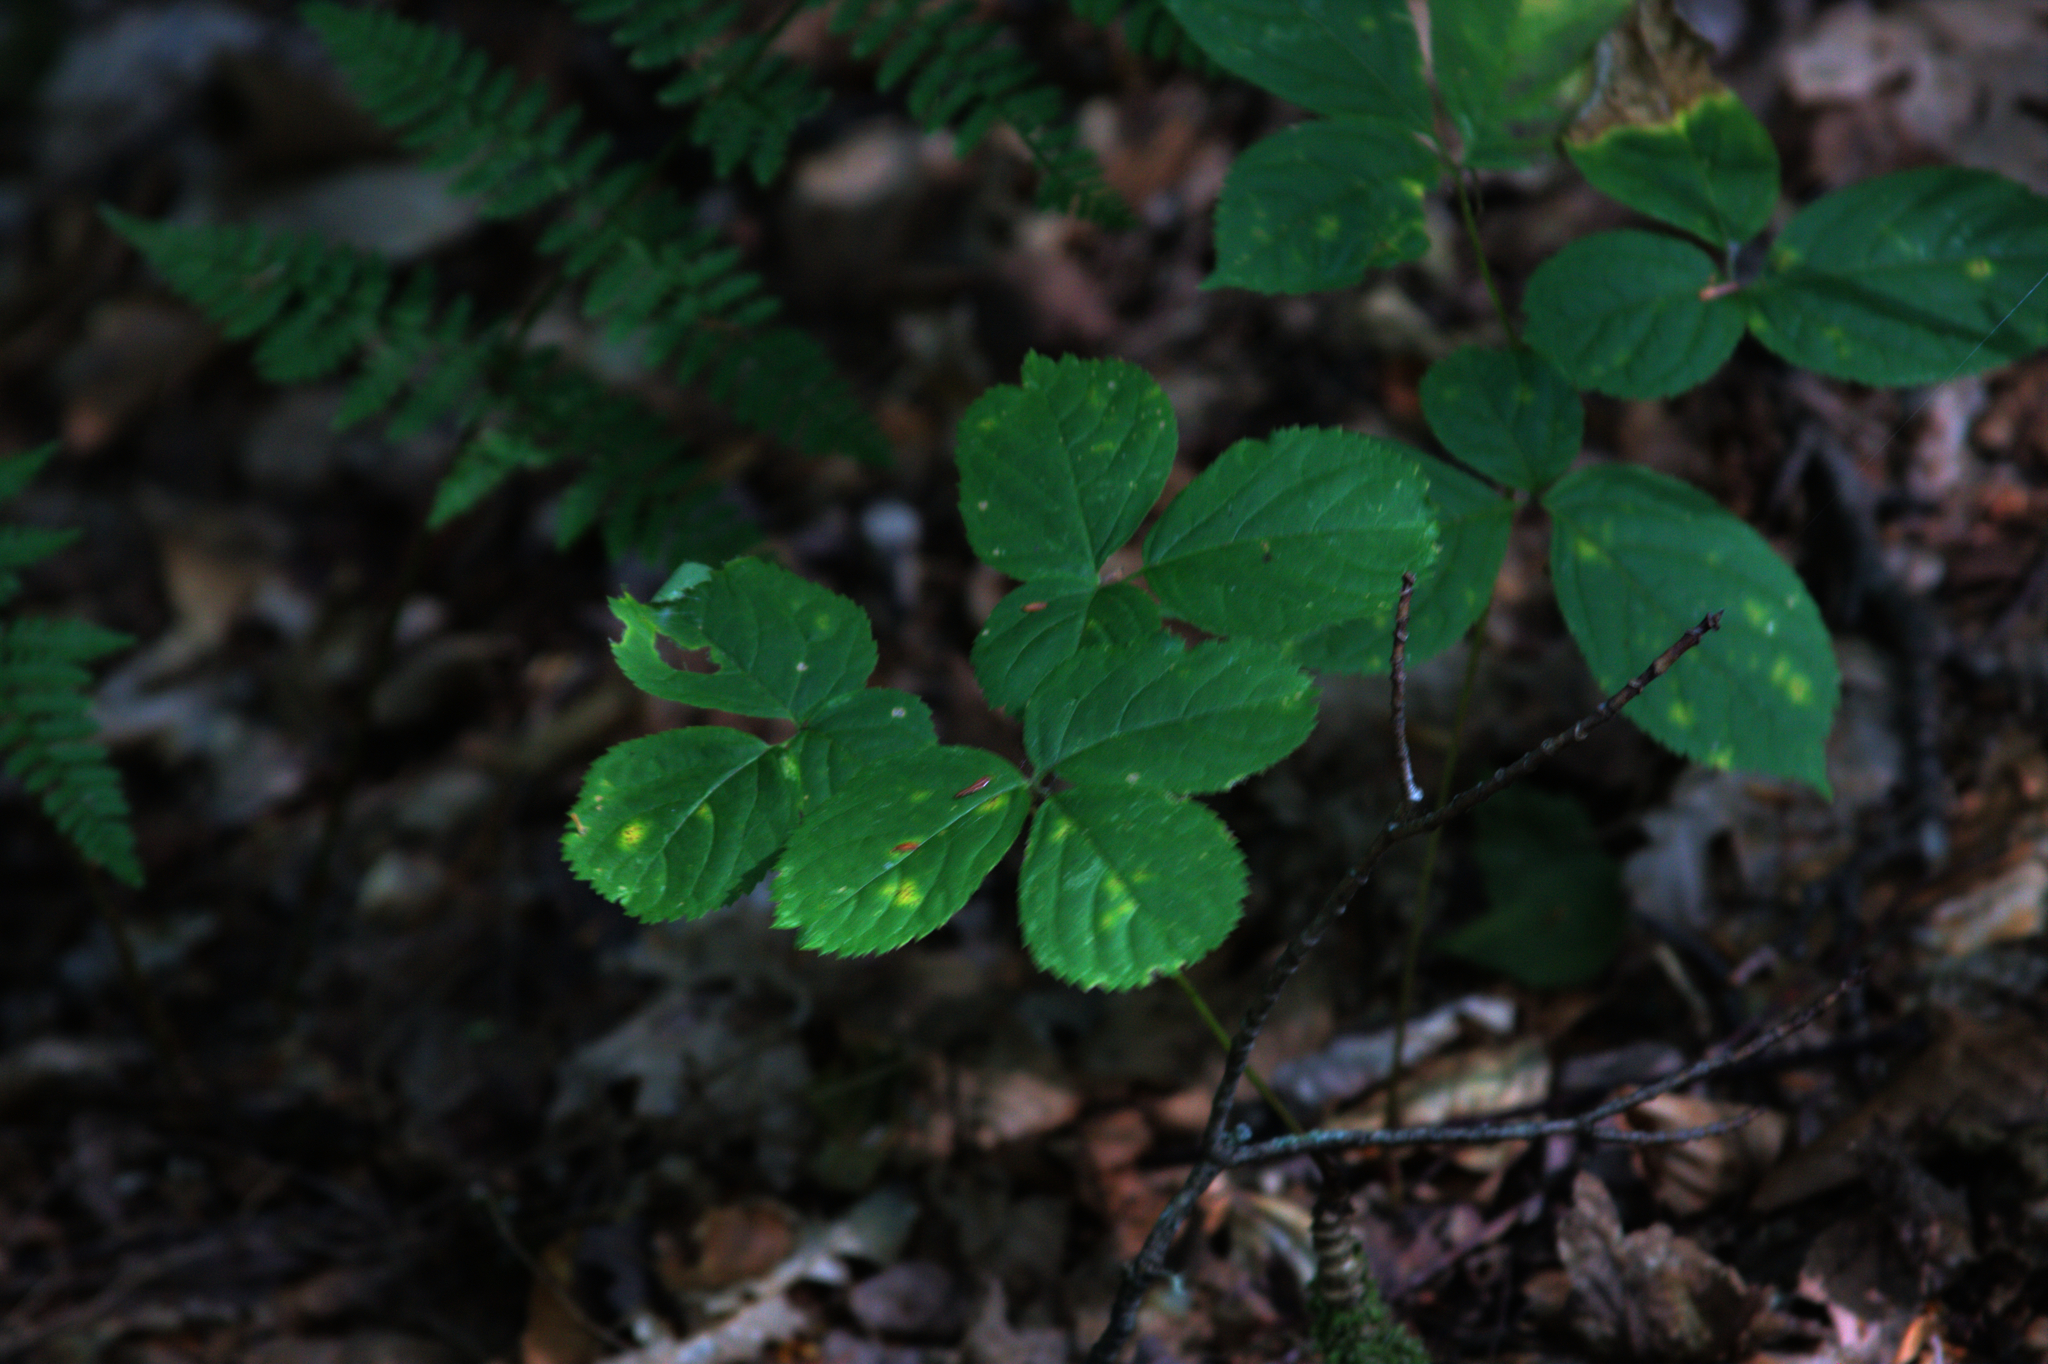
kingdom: Plantae
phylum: Tracheophyta
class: Magnoliopsida
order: Apiales
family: Araliaceae
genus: Aralia
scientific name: Aralia nudicaulis
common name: Wild sarsaparilla
